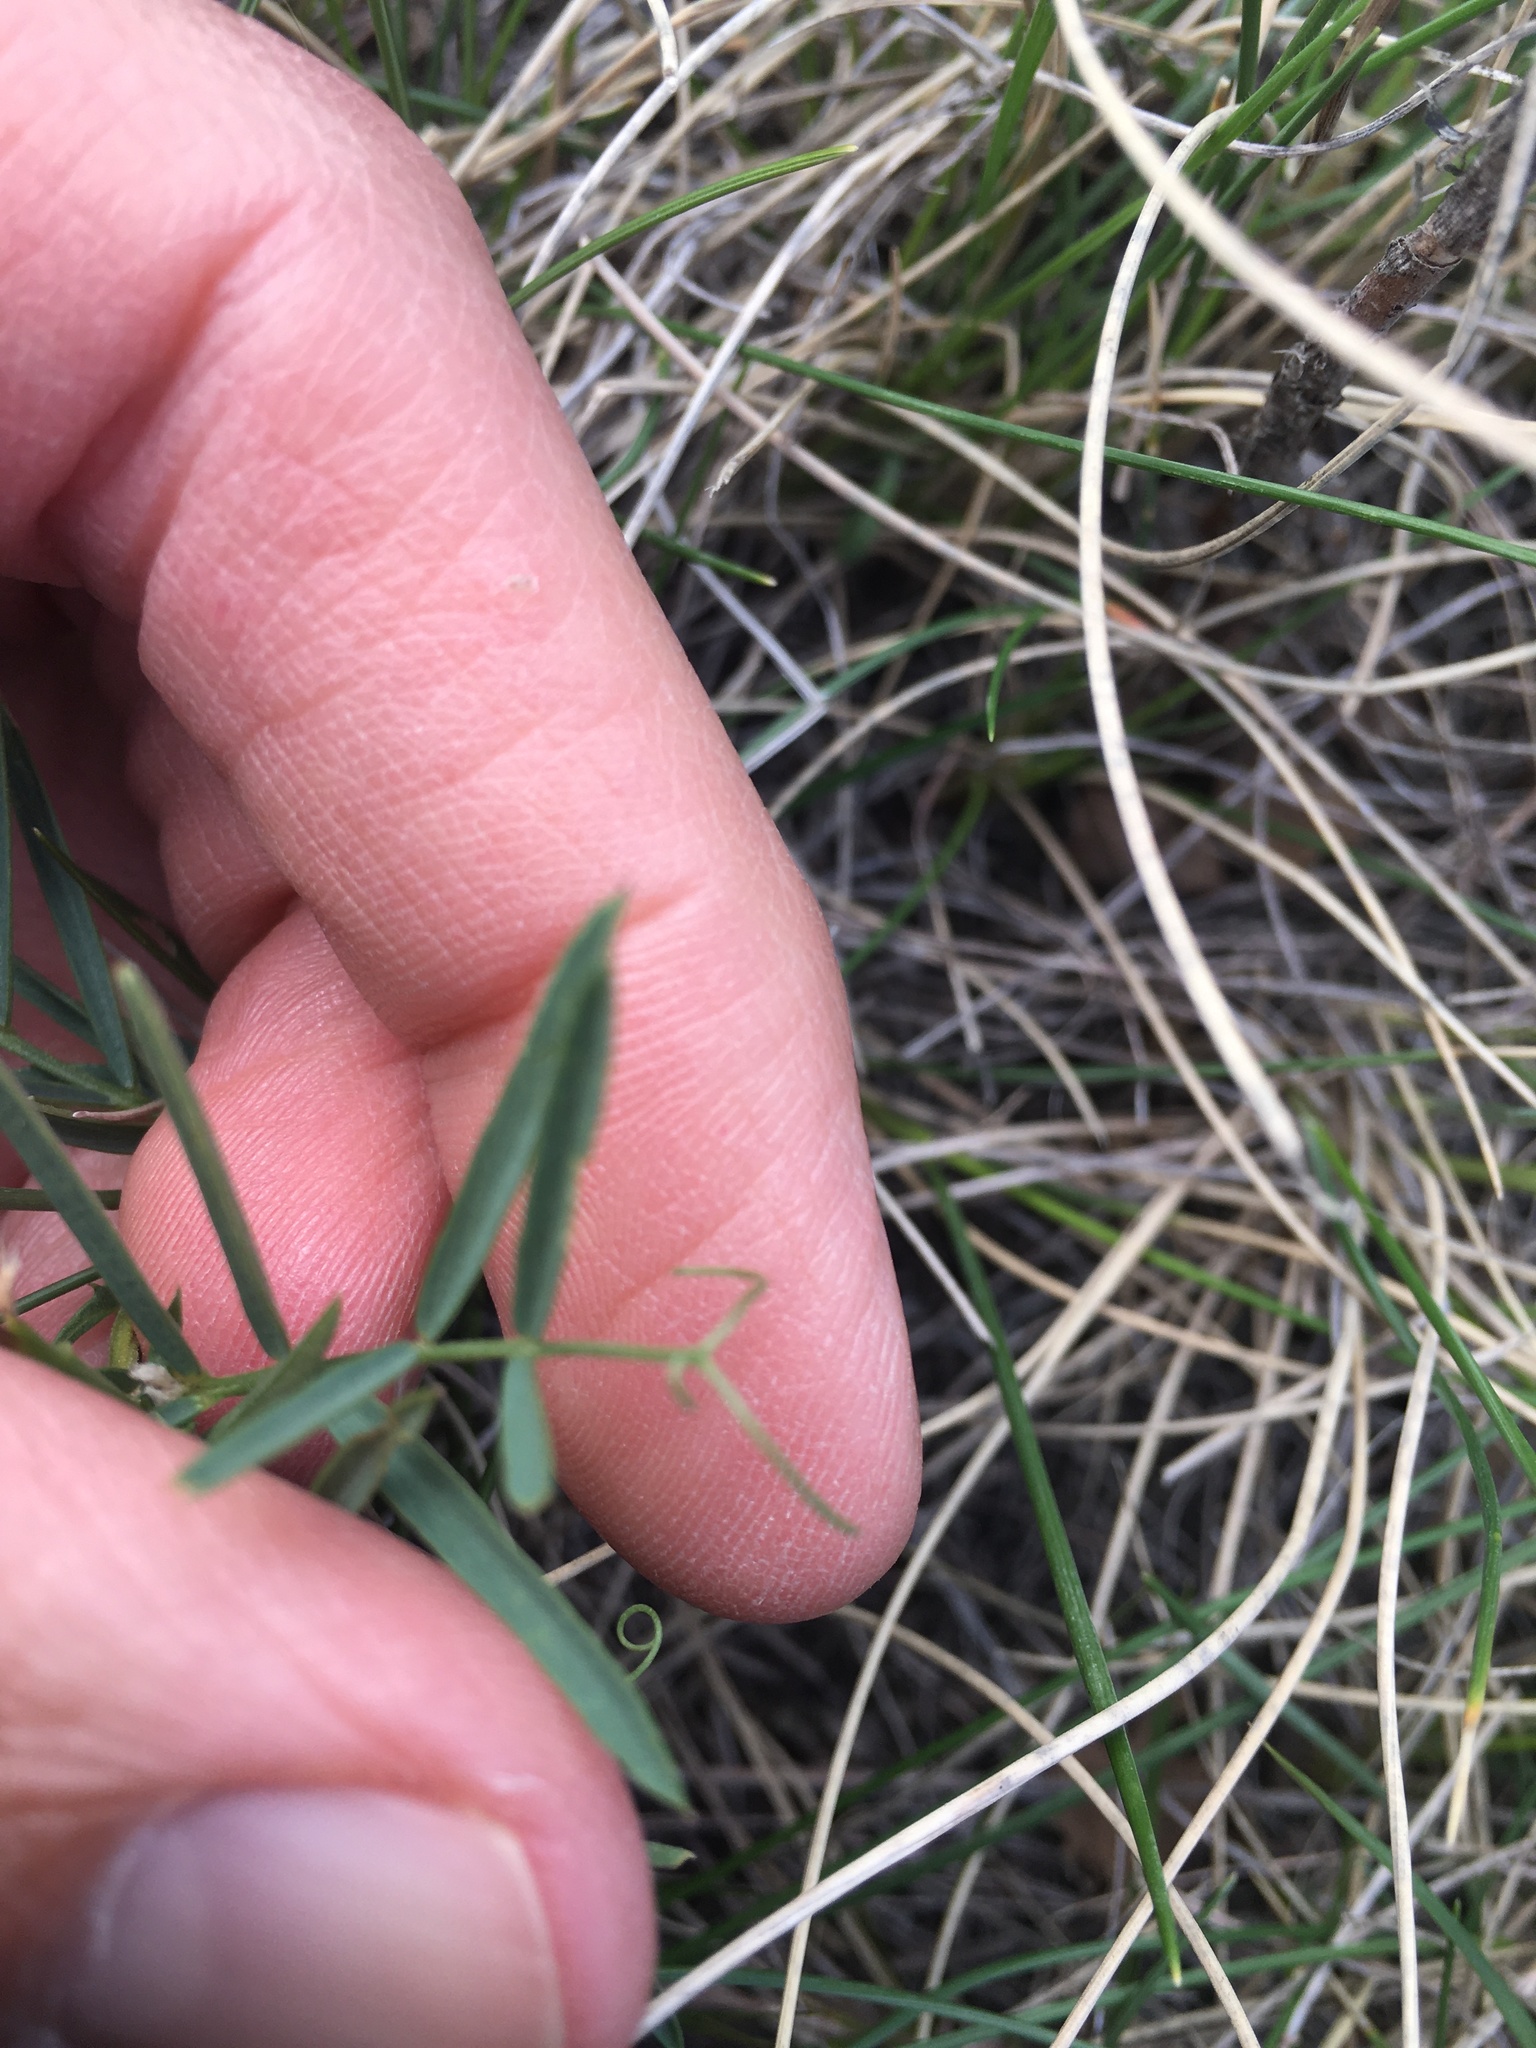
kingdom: Plantae
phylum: Tracheophyta
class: Magnoliopsida
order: Fabales
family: Fabaceae
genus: Vicia
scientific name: Vicia americana
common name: American vetch
